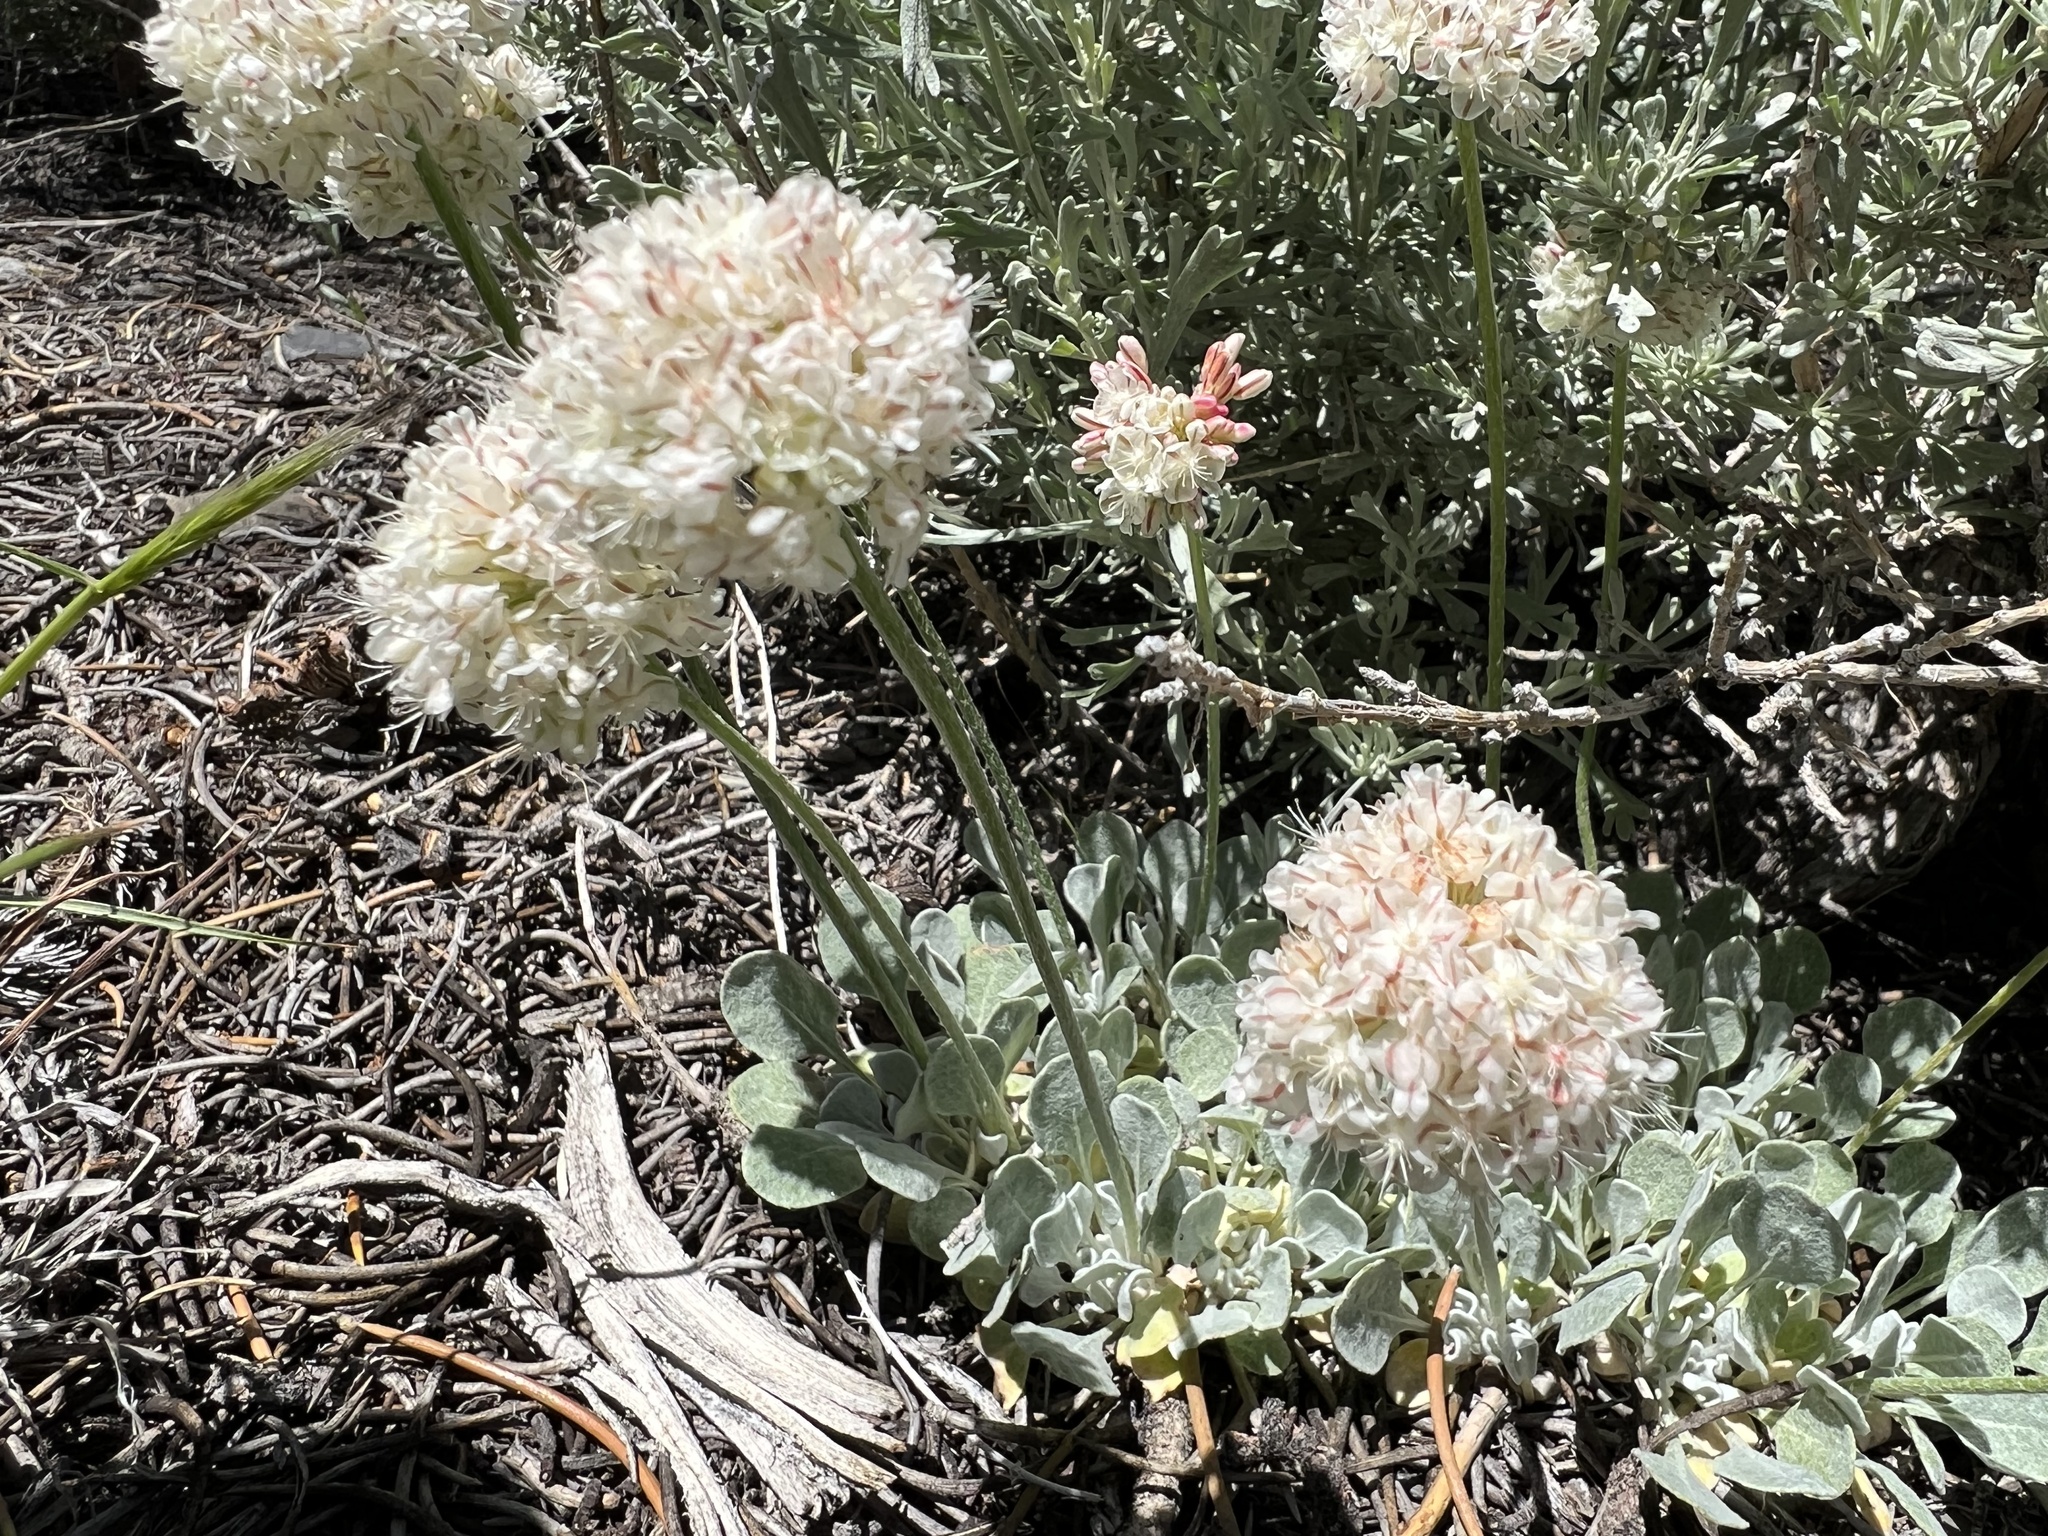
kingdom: Plantae
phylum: Tracheophyta
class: Magnoliopsida
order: Caryophyllales
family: Polygonaceae
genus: Eriogonum
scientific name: Eriogonum ovalifolium
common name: Cushion buckwheat
